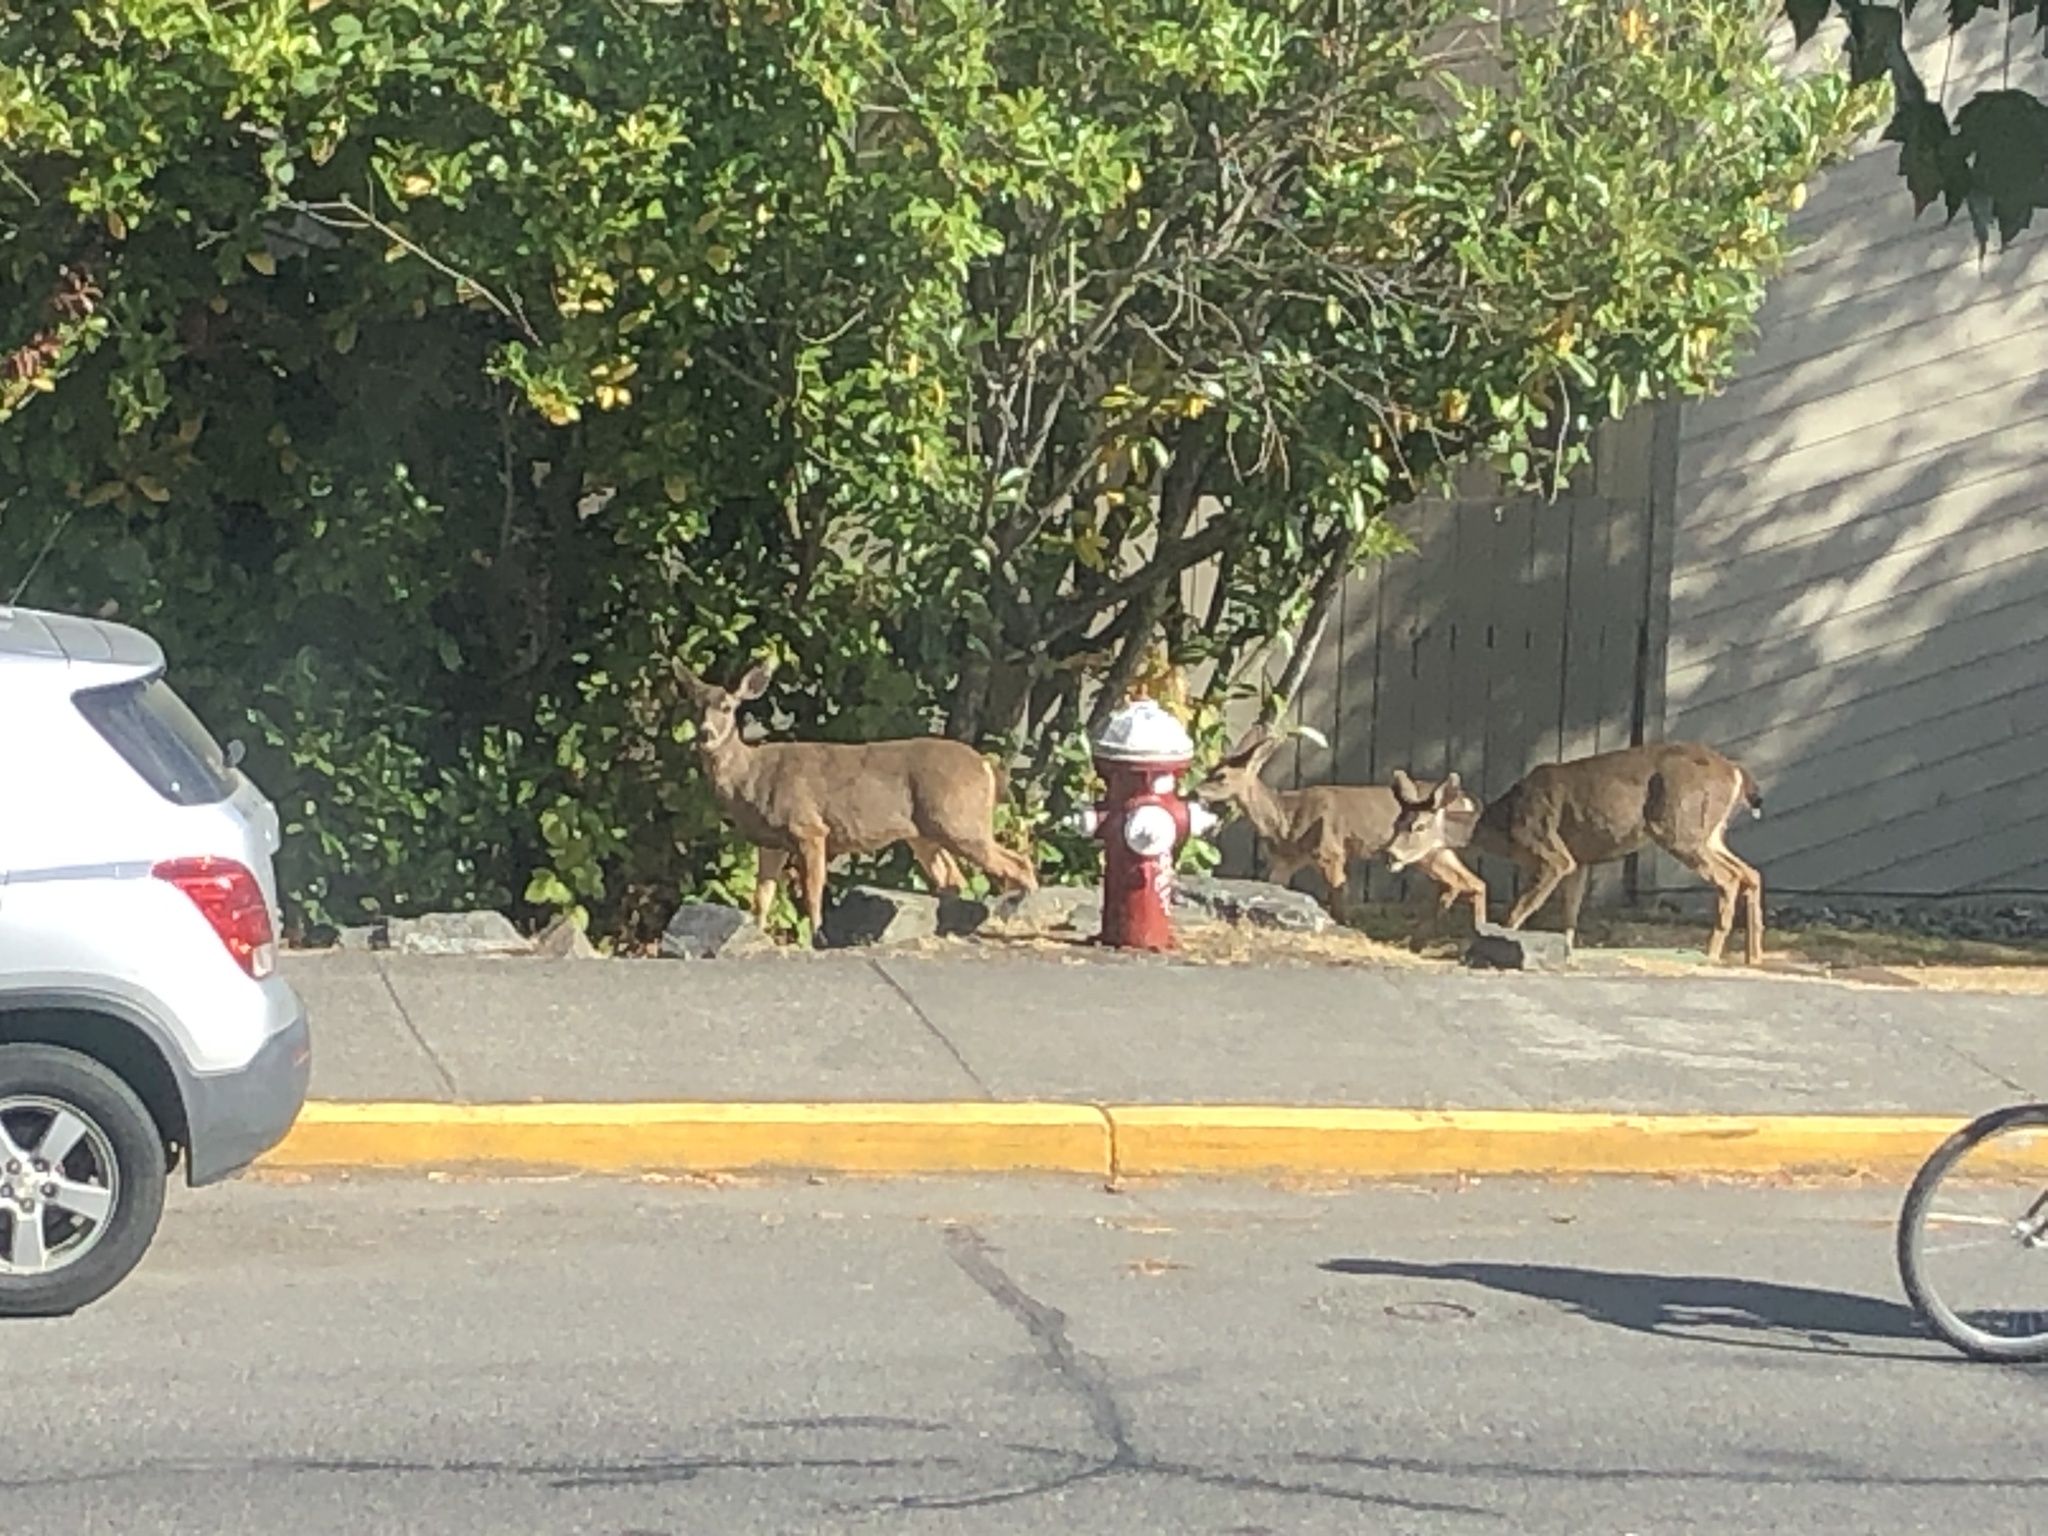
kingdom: Animalia
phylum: Chordata
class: Mammalia
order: Artiodactyla
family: Cervidae
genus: Odocoileus
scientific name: Odocoileus hemionus
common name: Mule deer
